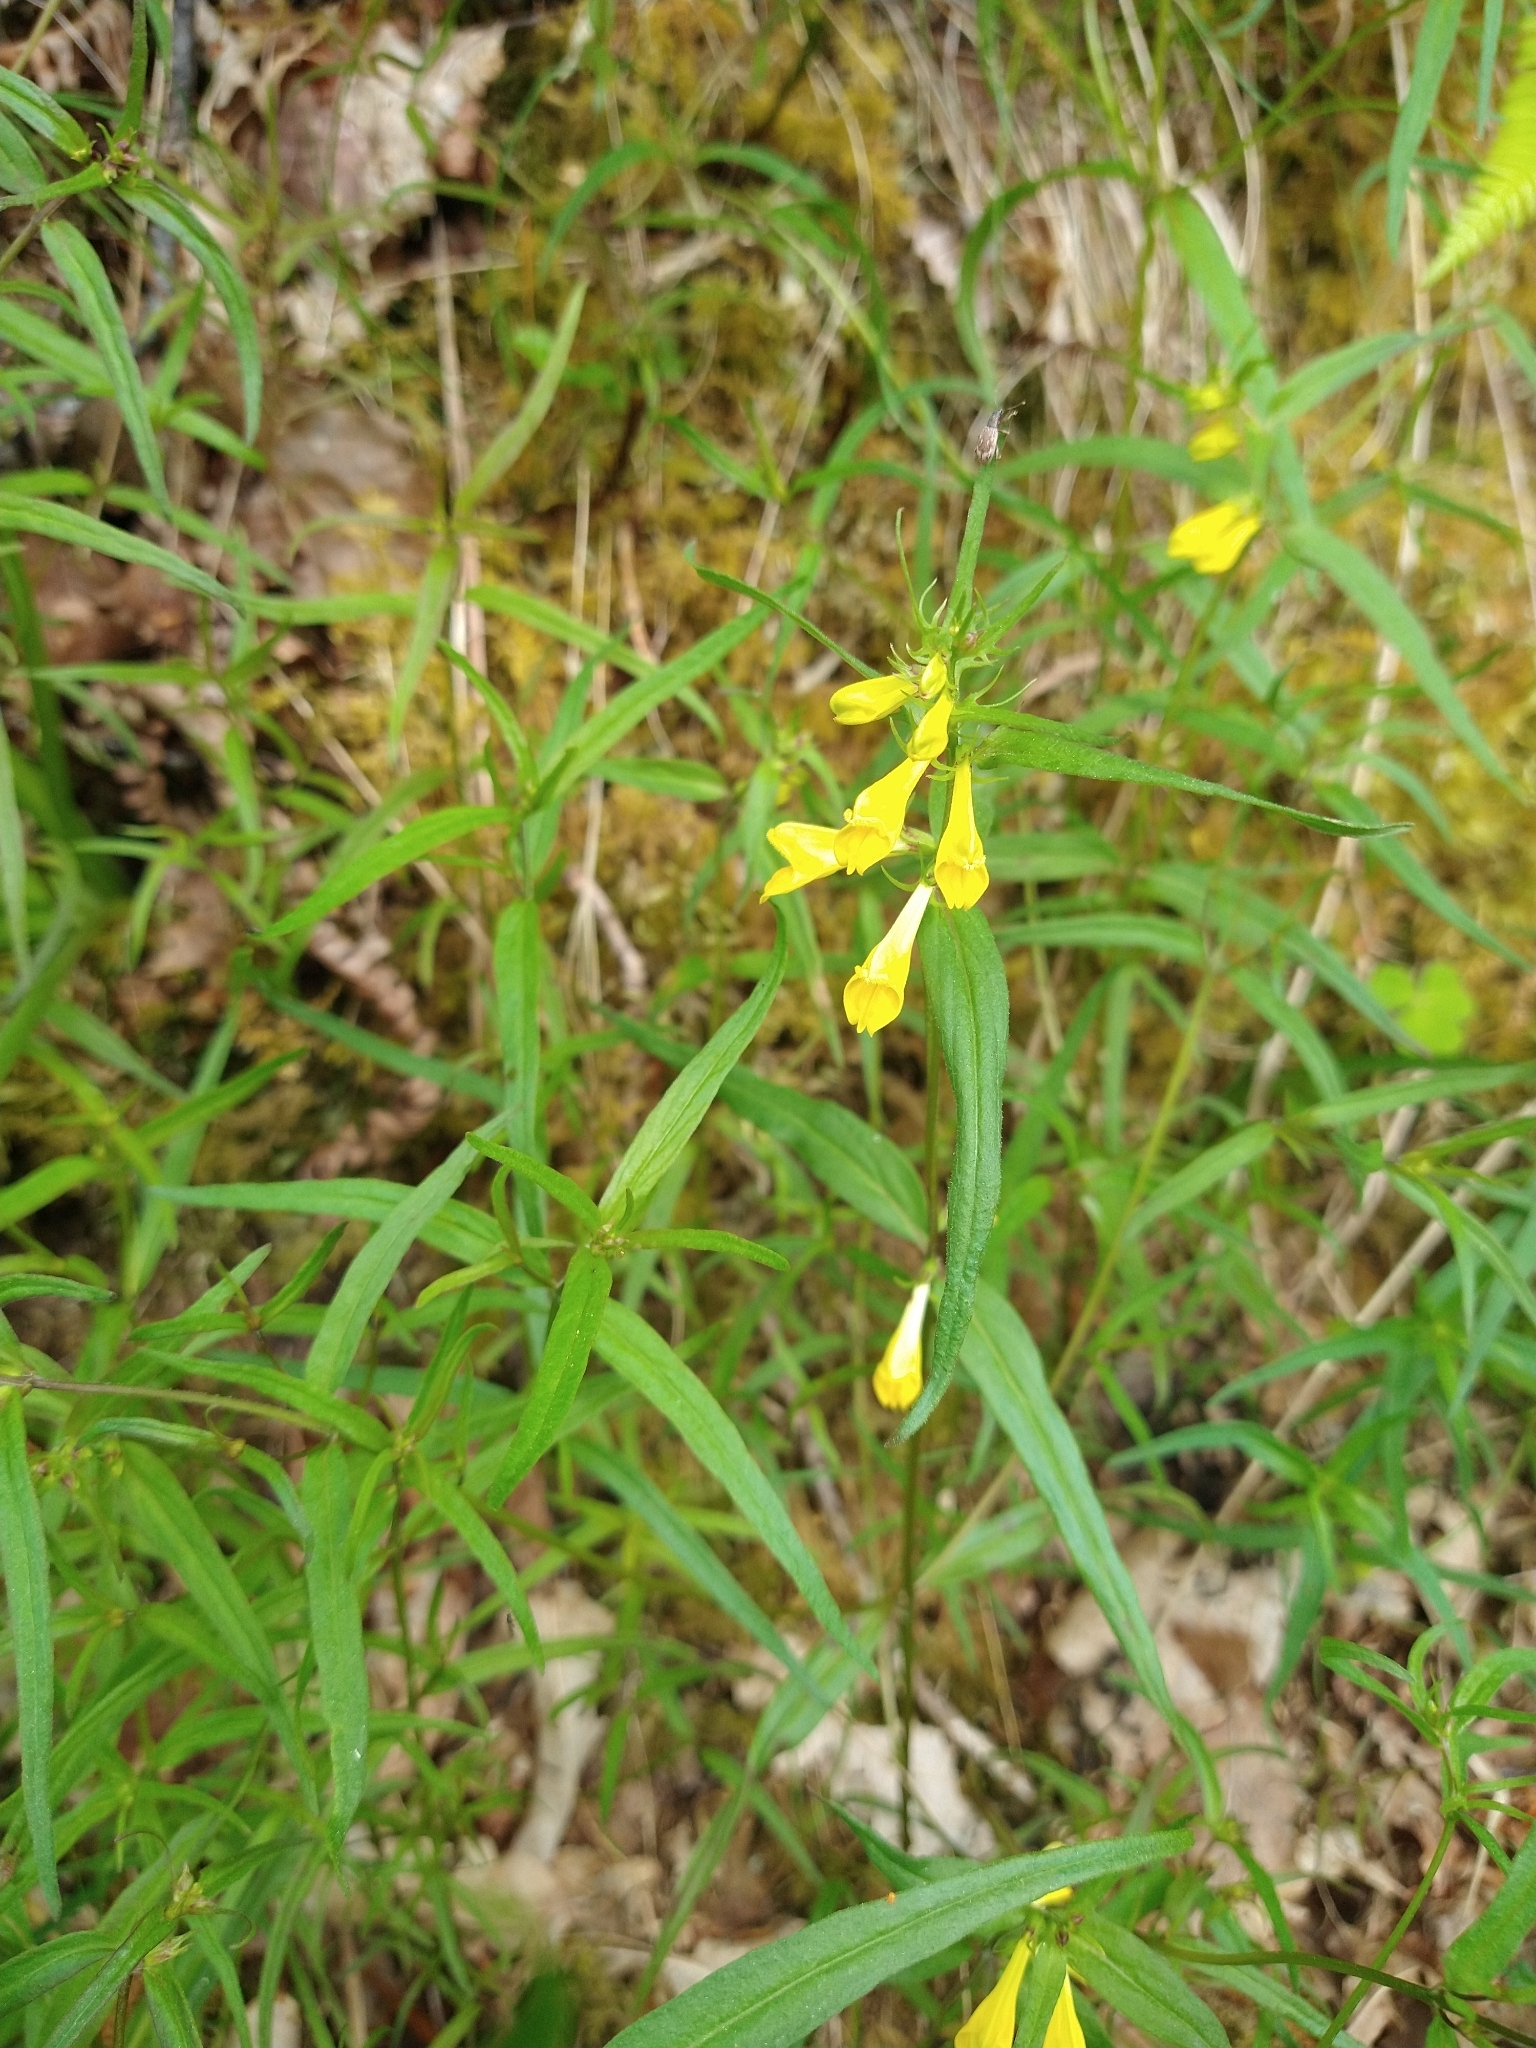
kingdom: Plantae
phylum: Tracheophyta
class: Magnoliopsida
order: Lamiales
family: Orobanchaceae
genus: Melampyrum
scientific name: Melampyrum pratense
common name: Common cow-wheat
